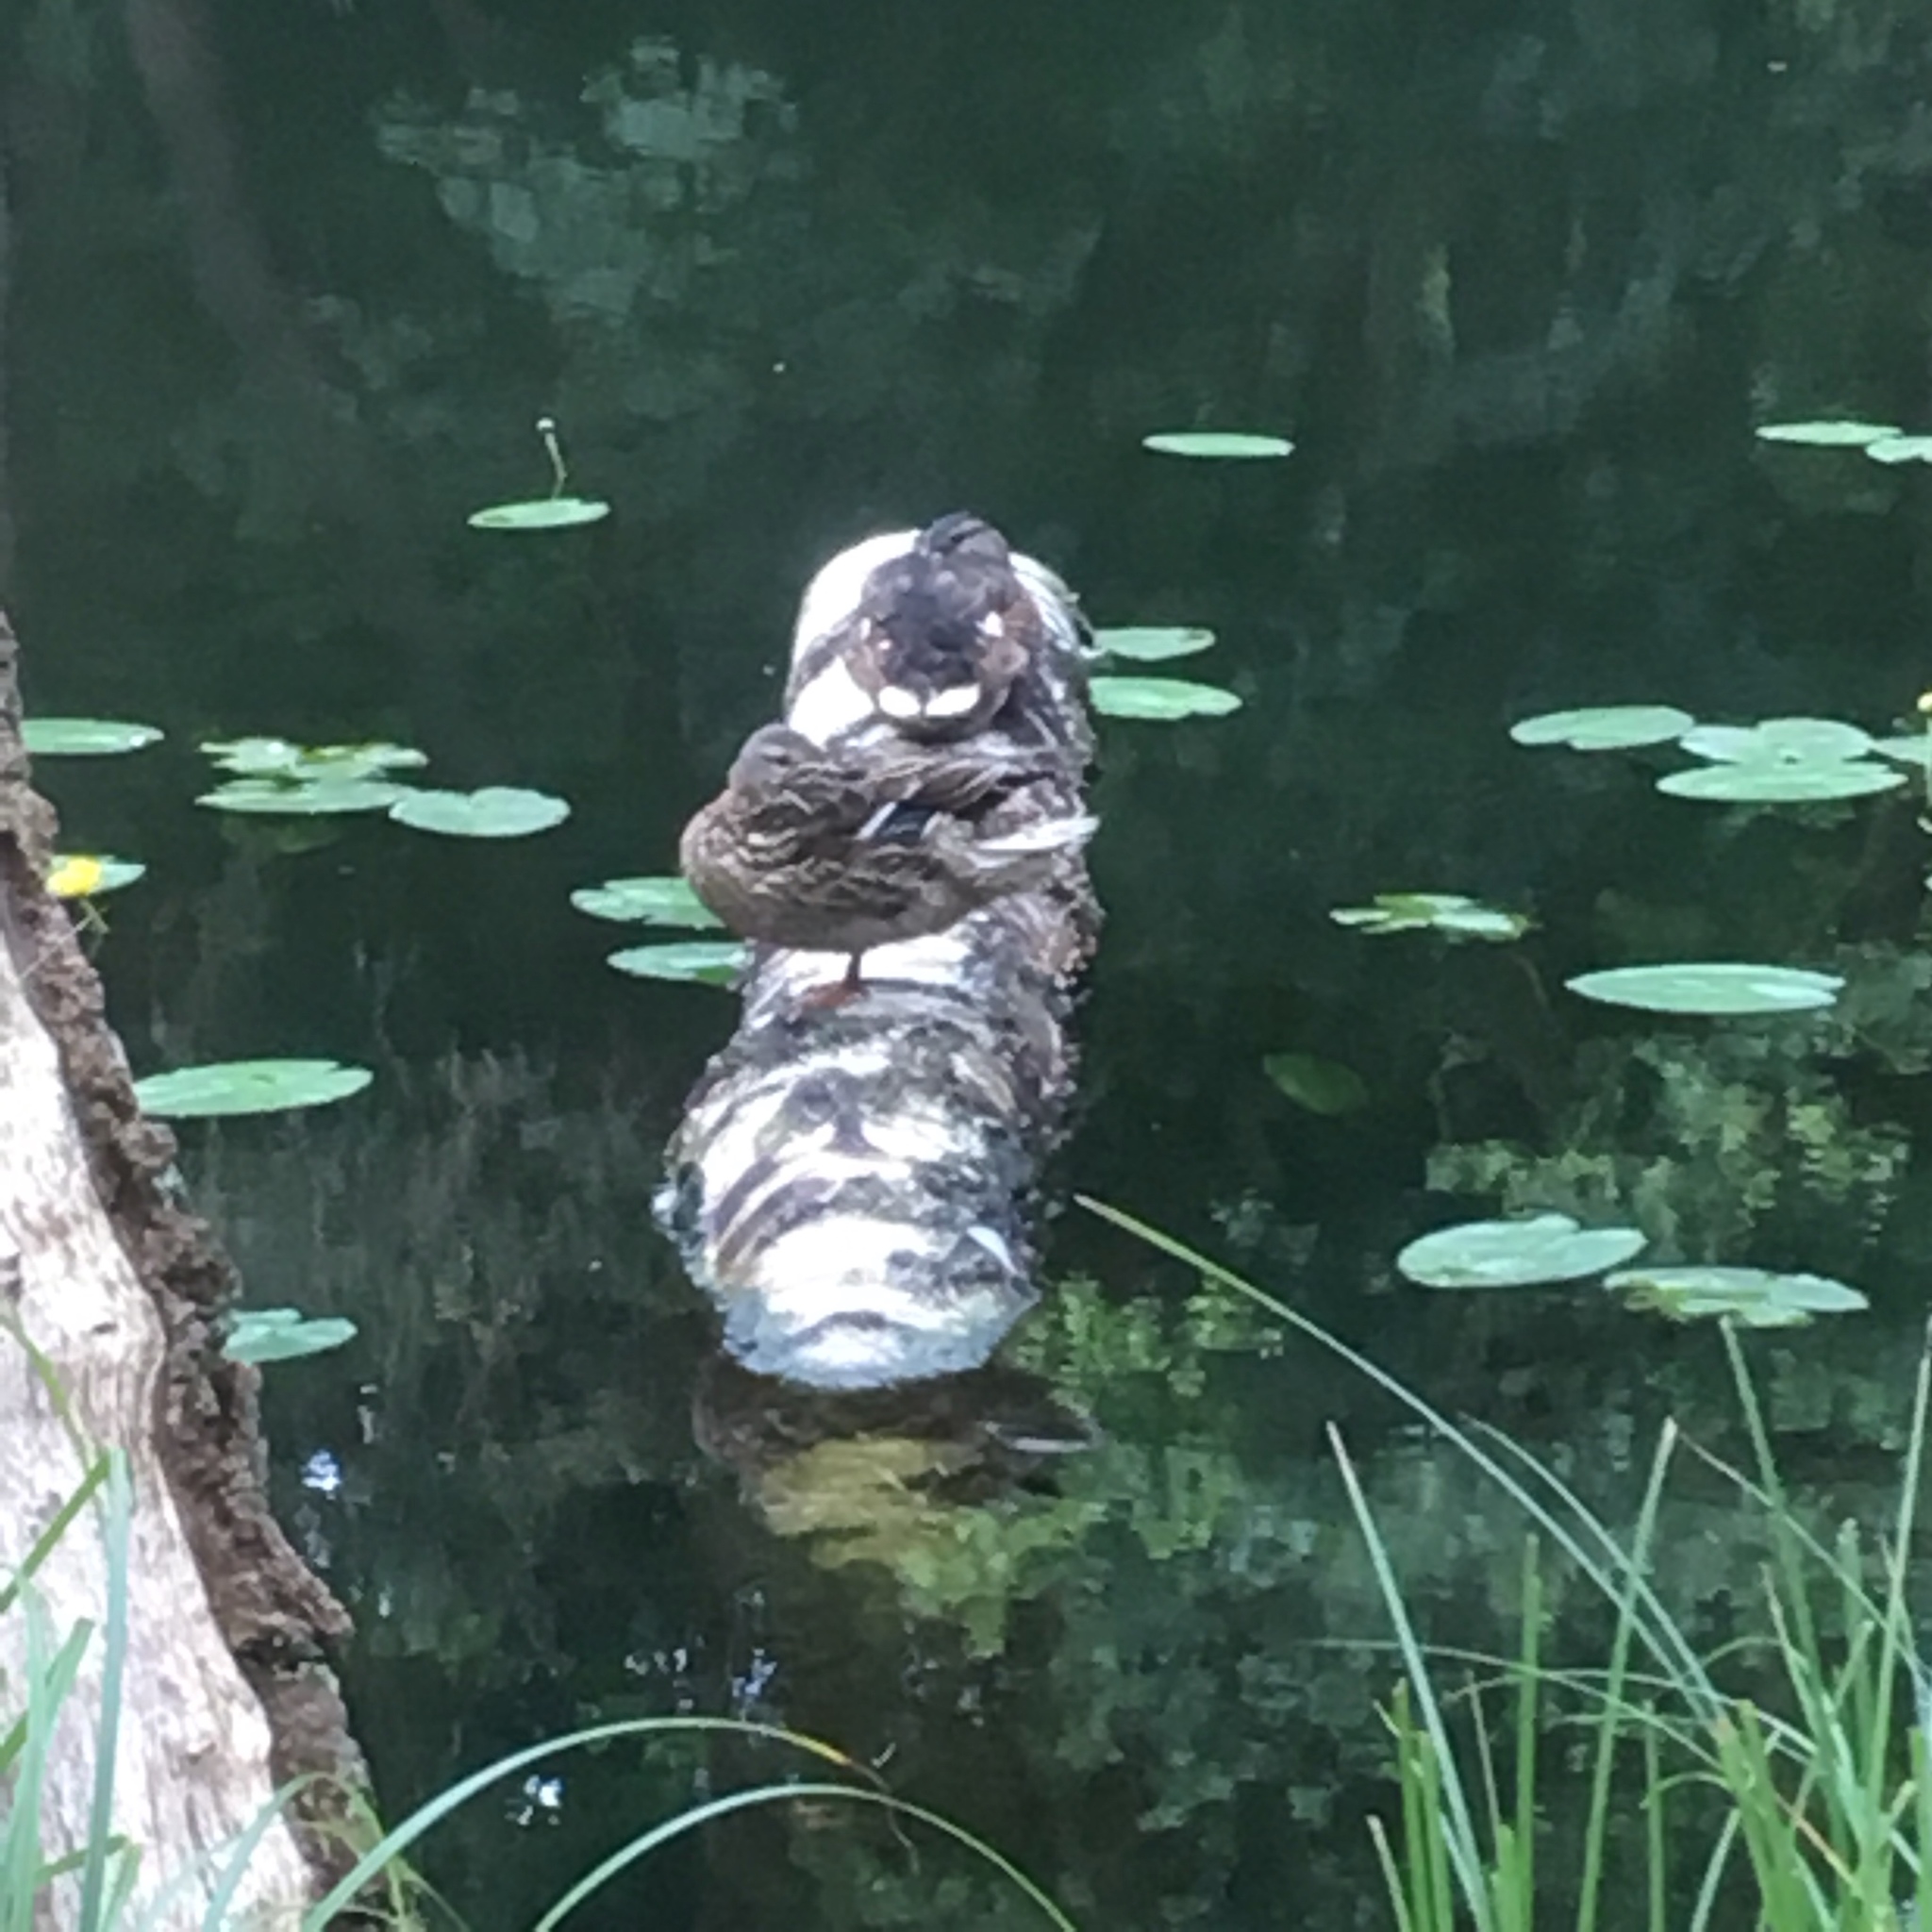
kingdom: Animalia
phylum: Chordata
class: Aves
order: Anseriformes
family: Anatidae
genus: Anas
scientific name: Anas platyrhynchos
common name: Mallard
